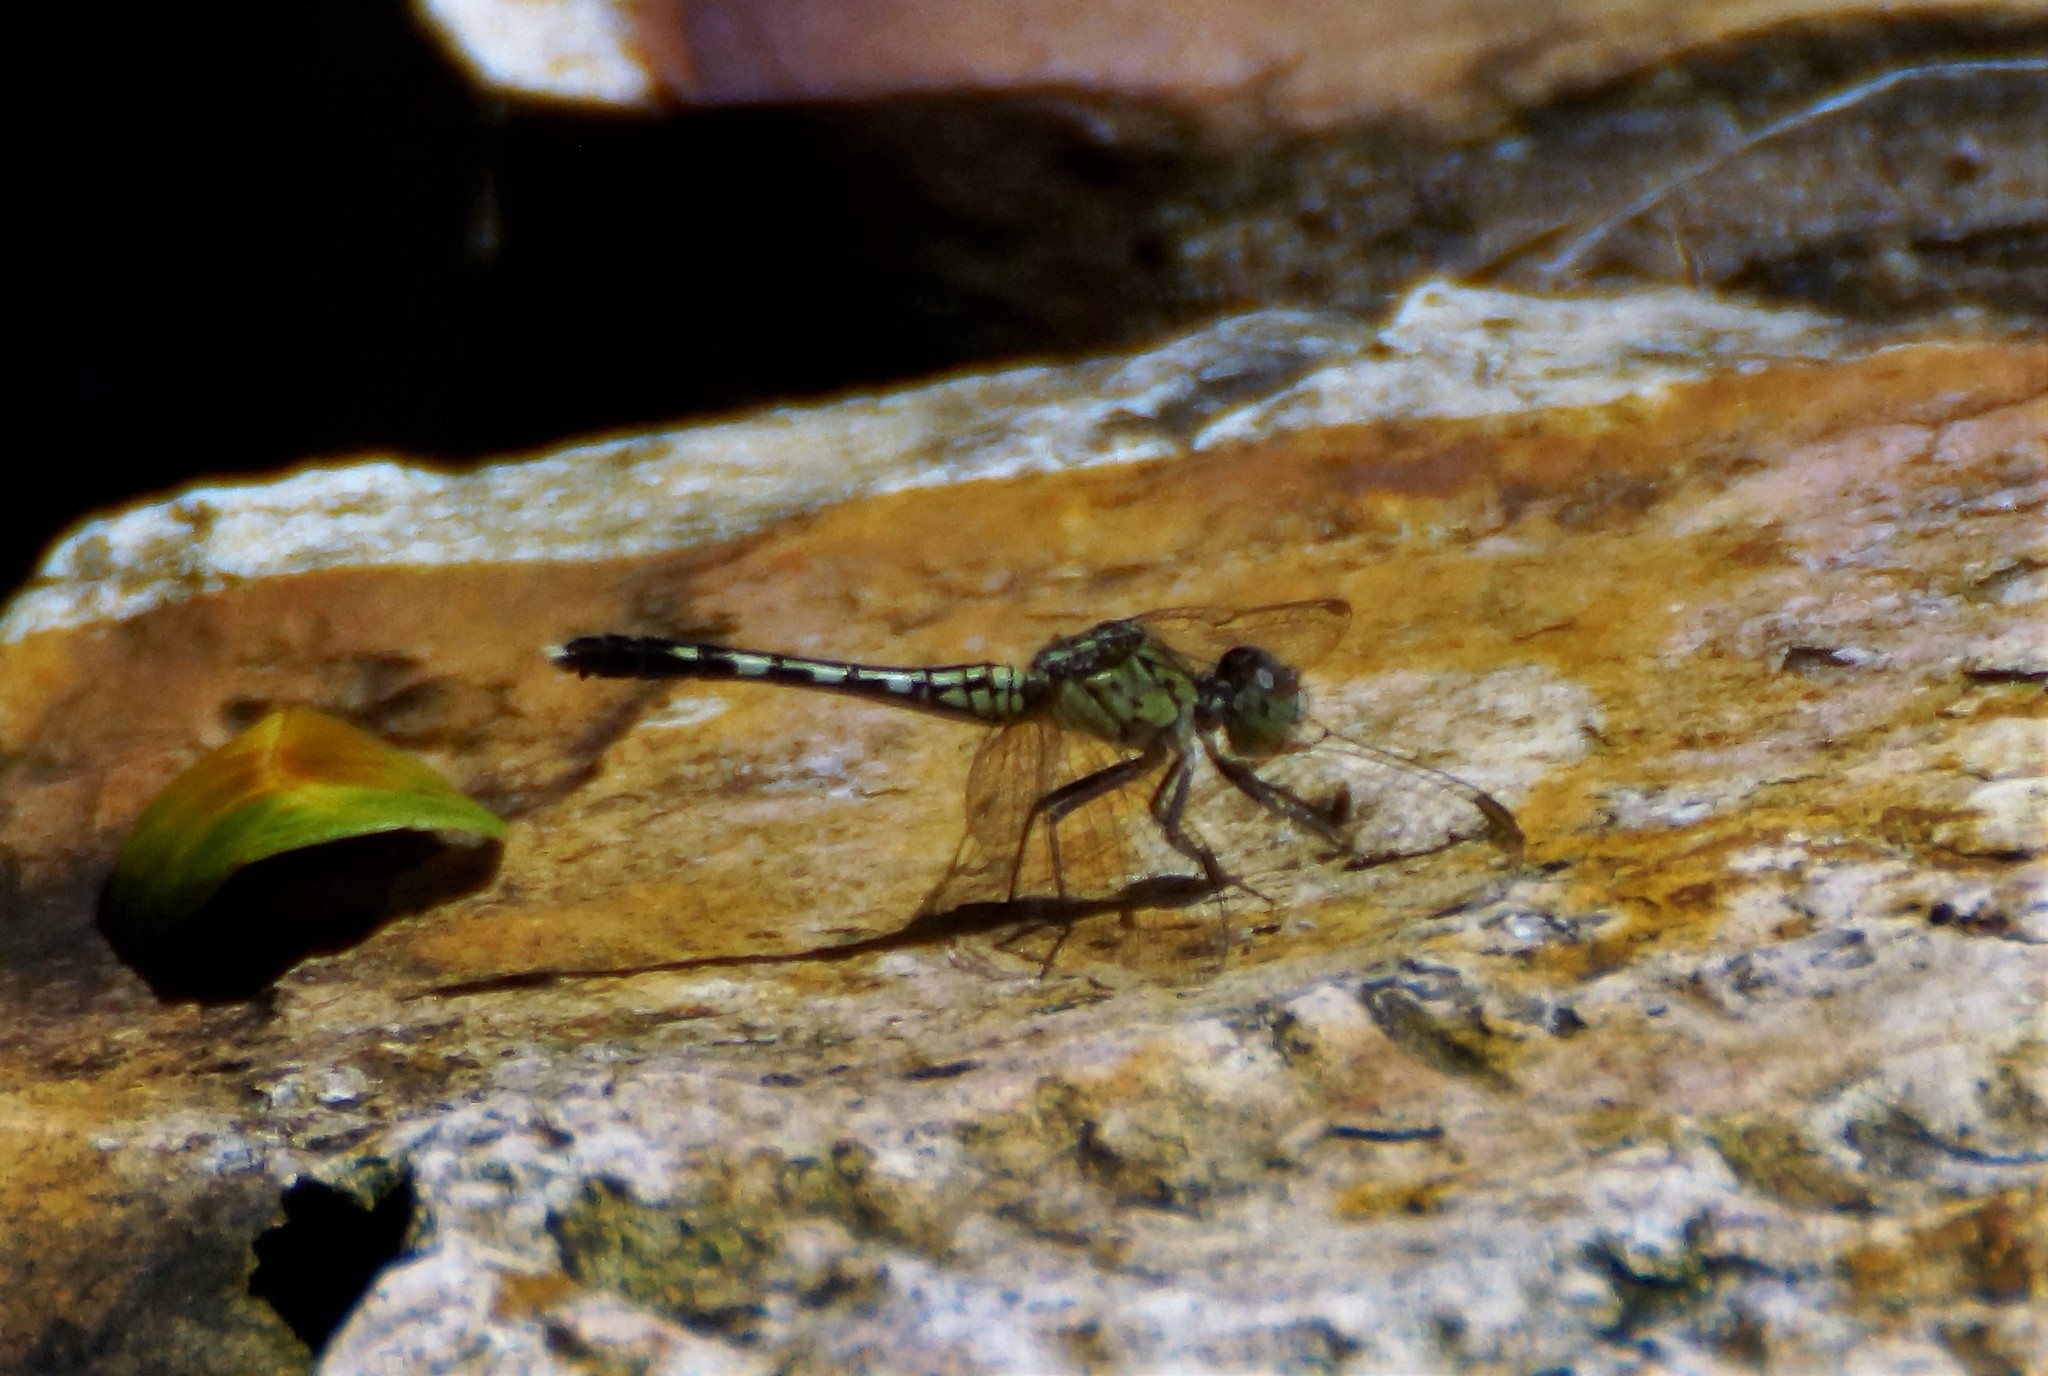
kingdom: Animalia
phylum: Arthropoda
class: Insecta
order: Odonata
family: Libellulidae
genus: Diplacodes
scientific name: Diplacodes trivialis
